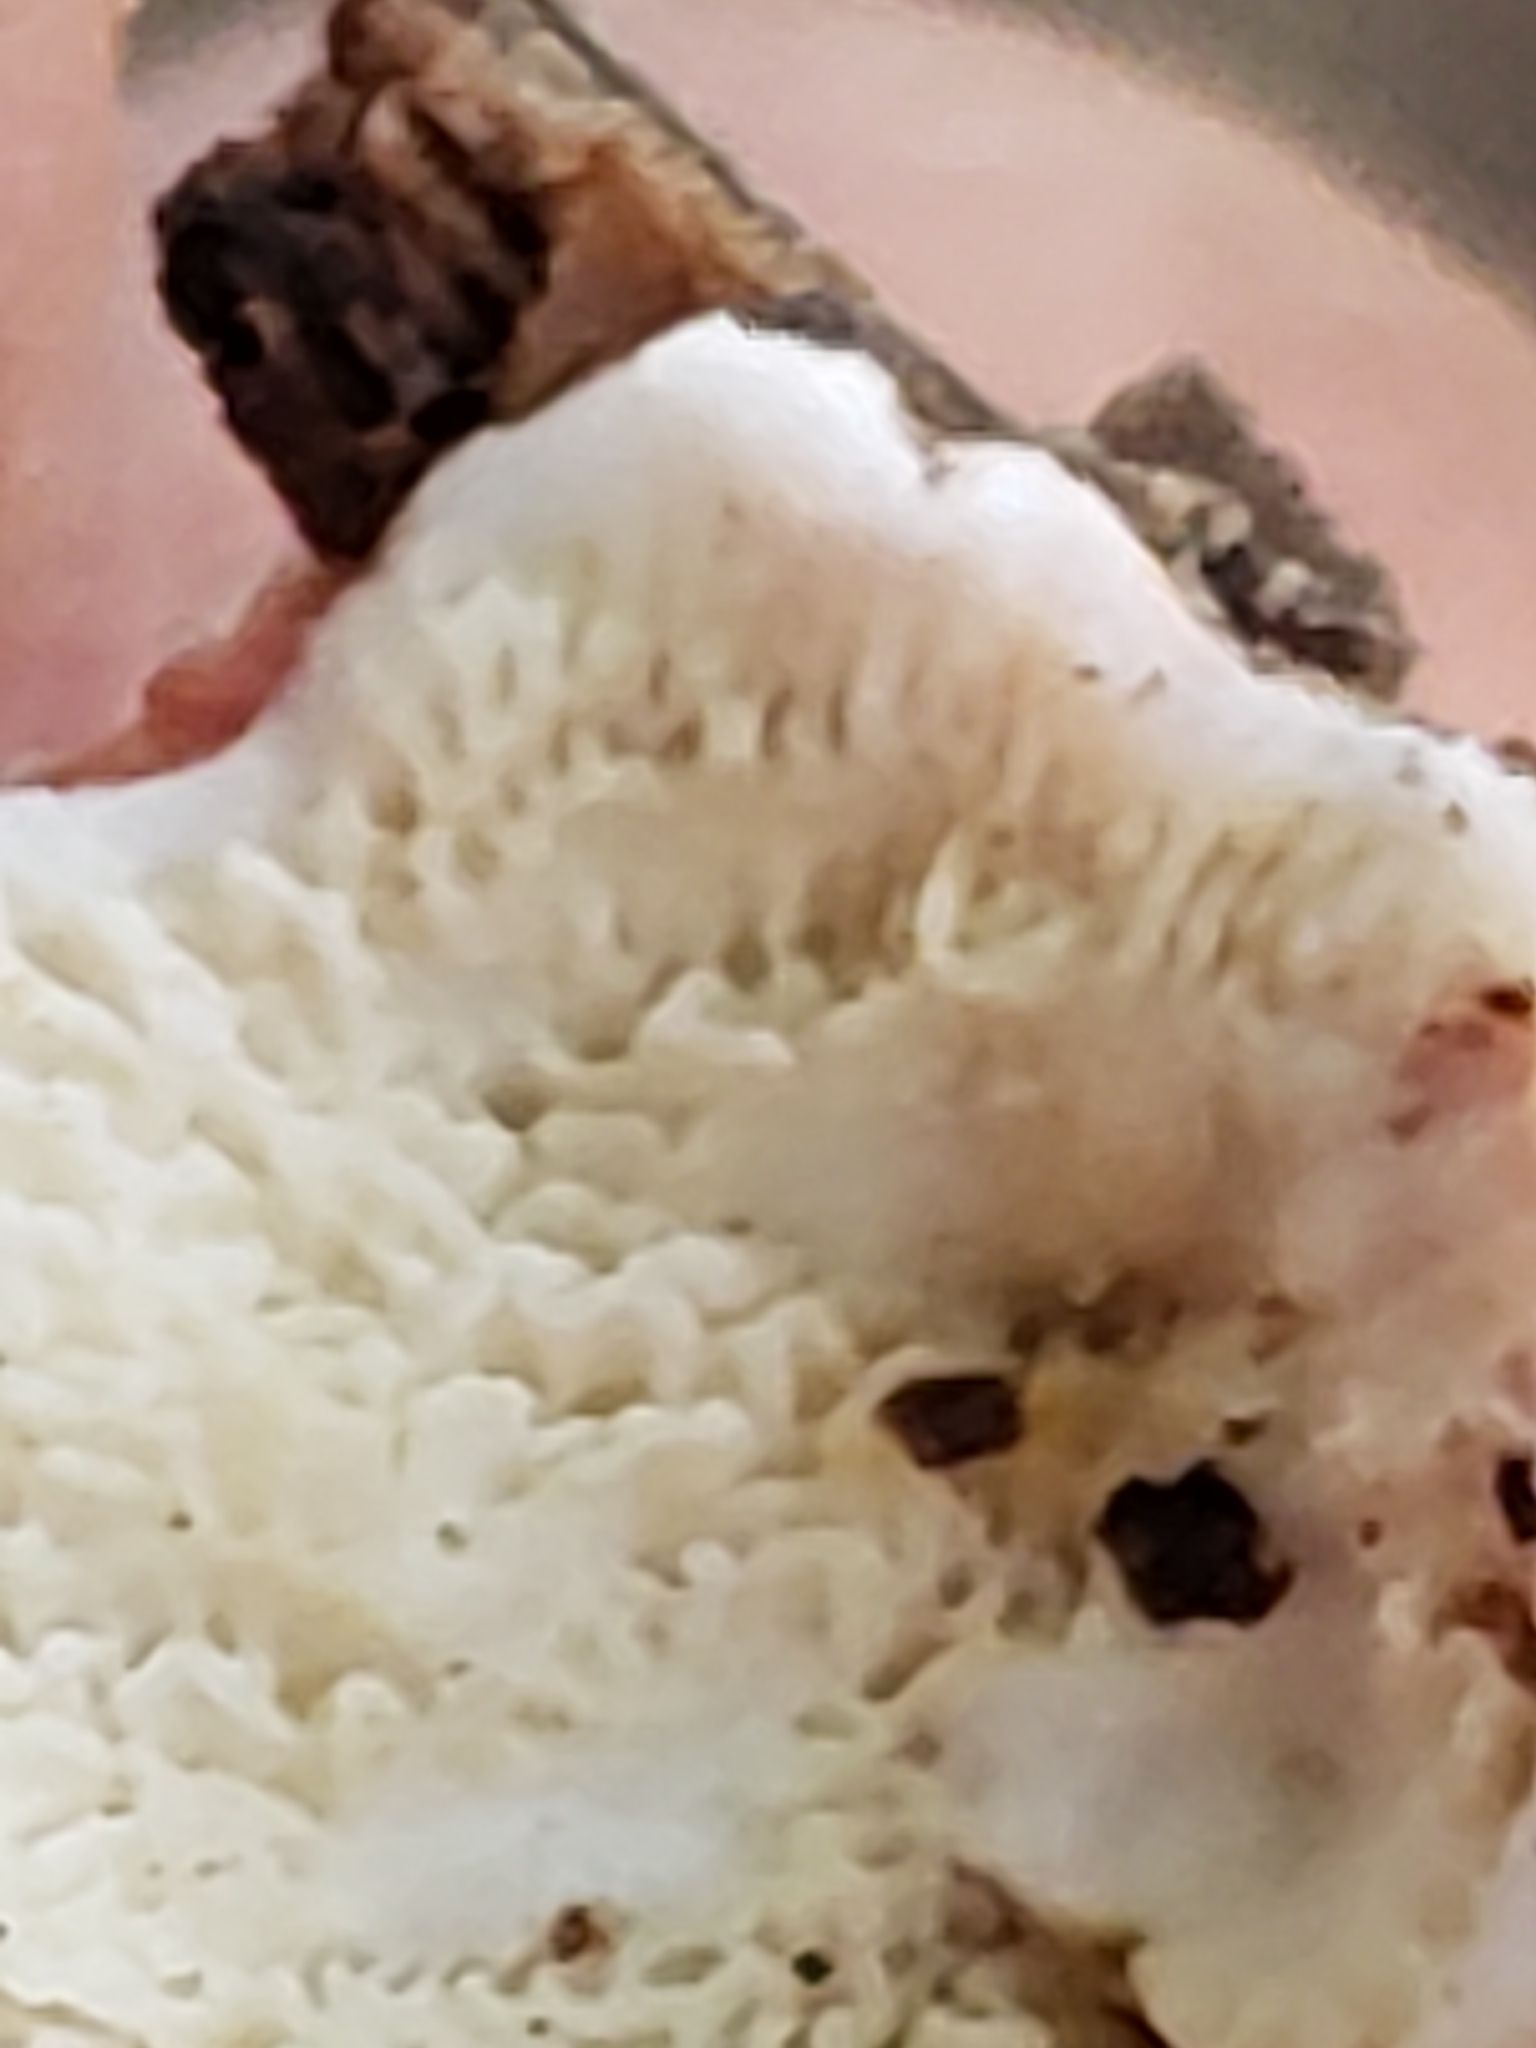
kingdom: Fungi
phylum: Basidiomycota
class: Agaricomycetes
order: Polyporales
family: Irpicaceae
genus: Byssomerulius
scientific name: Byssomerulius incarnatus
